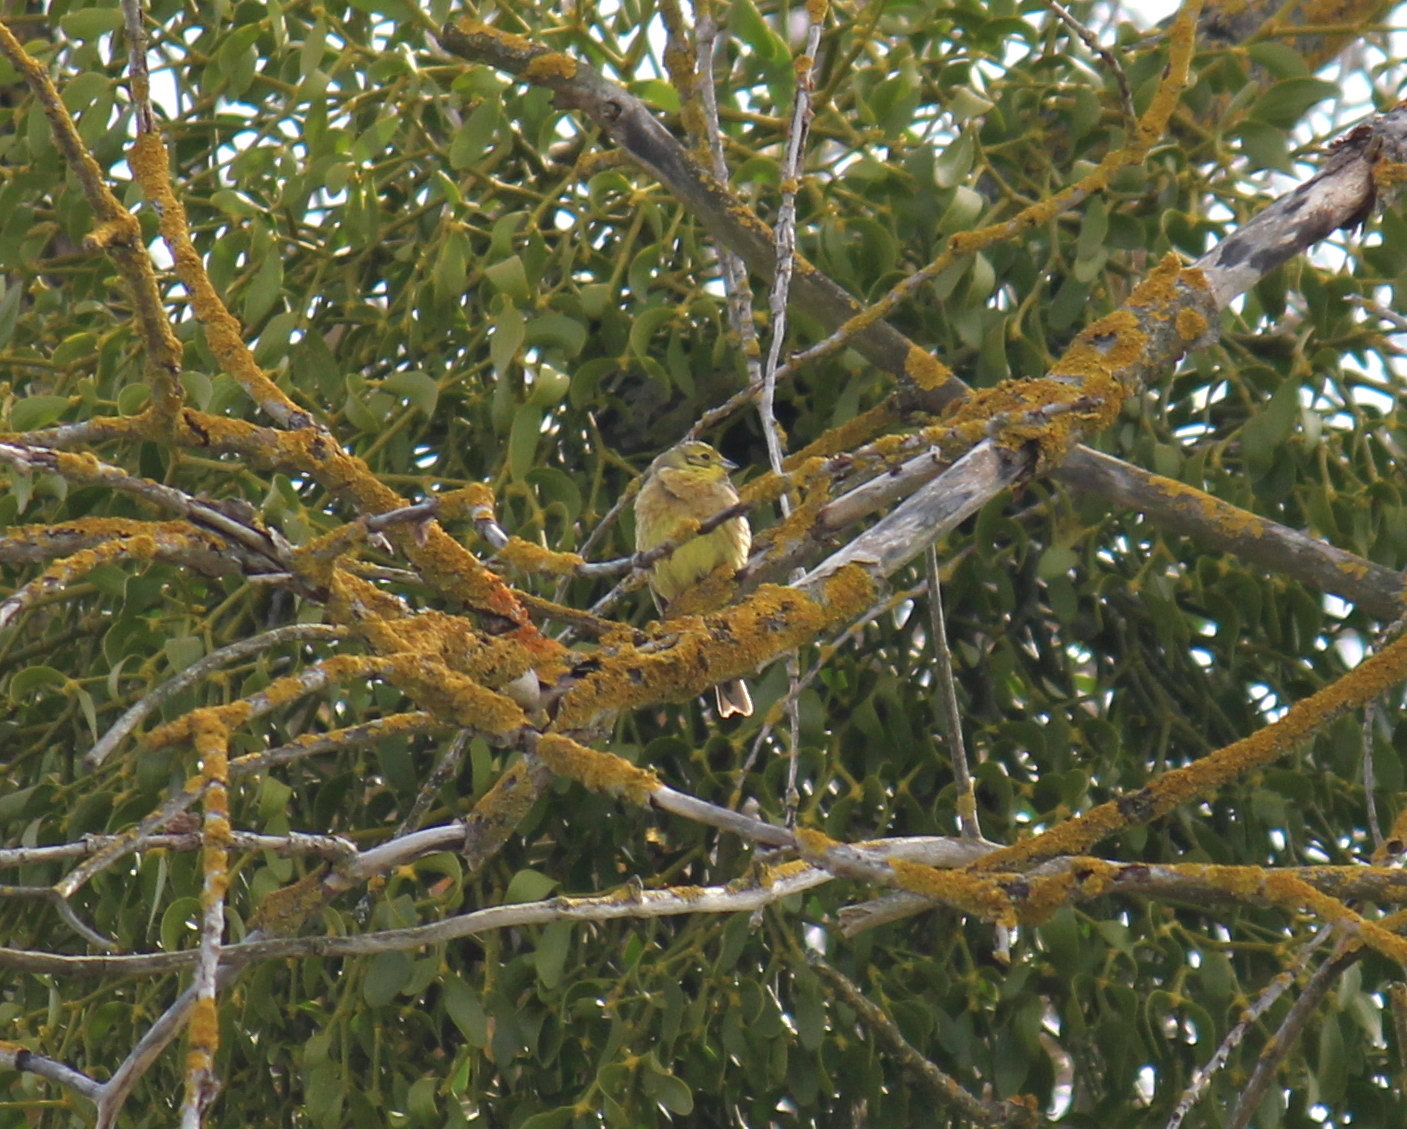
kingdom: Animalia
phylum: Chordata
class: Aves
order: Passeriformes
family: Emberizidae
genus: Emberiza
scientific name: Emberiza citrinella
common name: Yellowhammer
